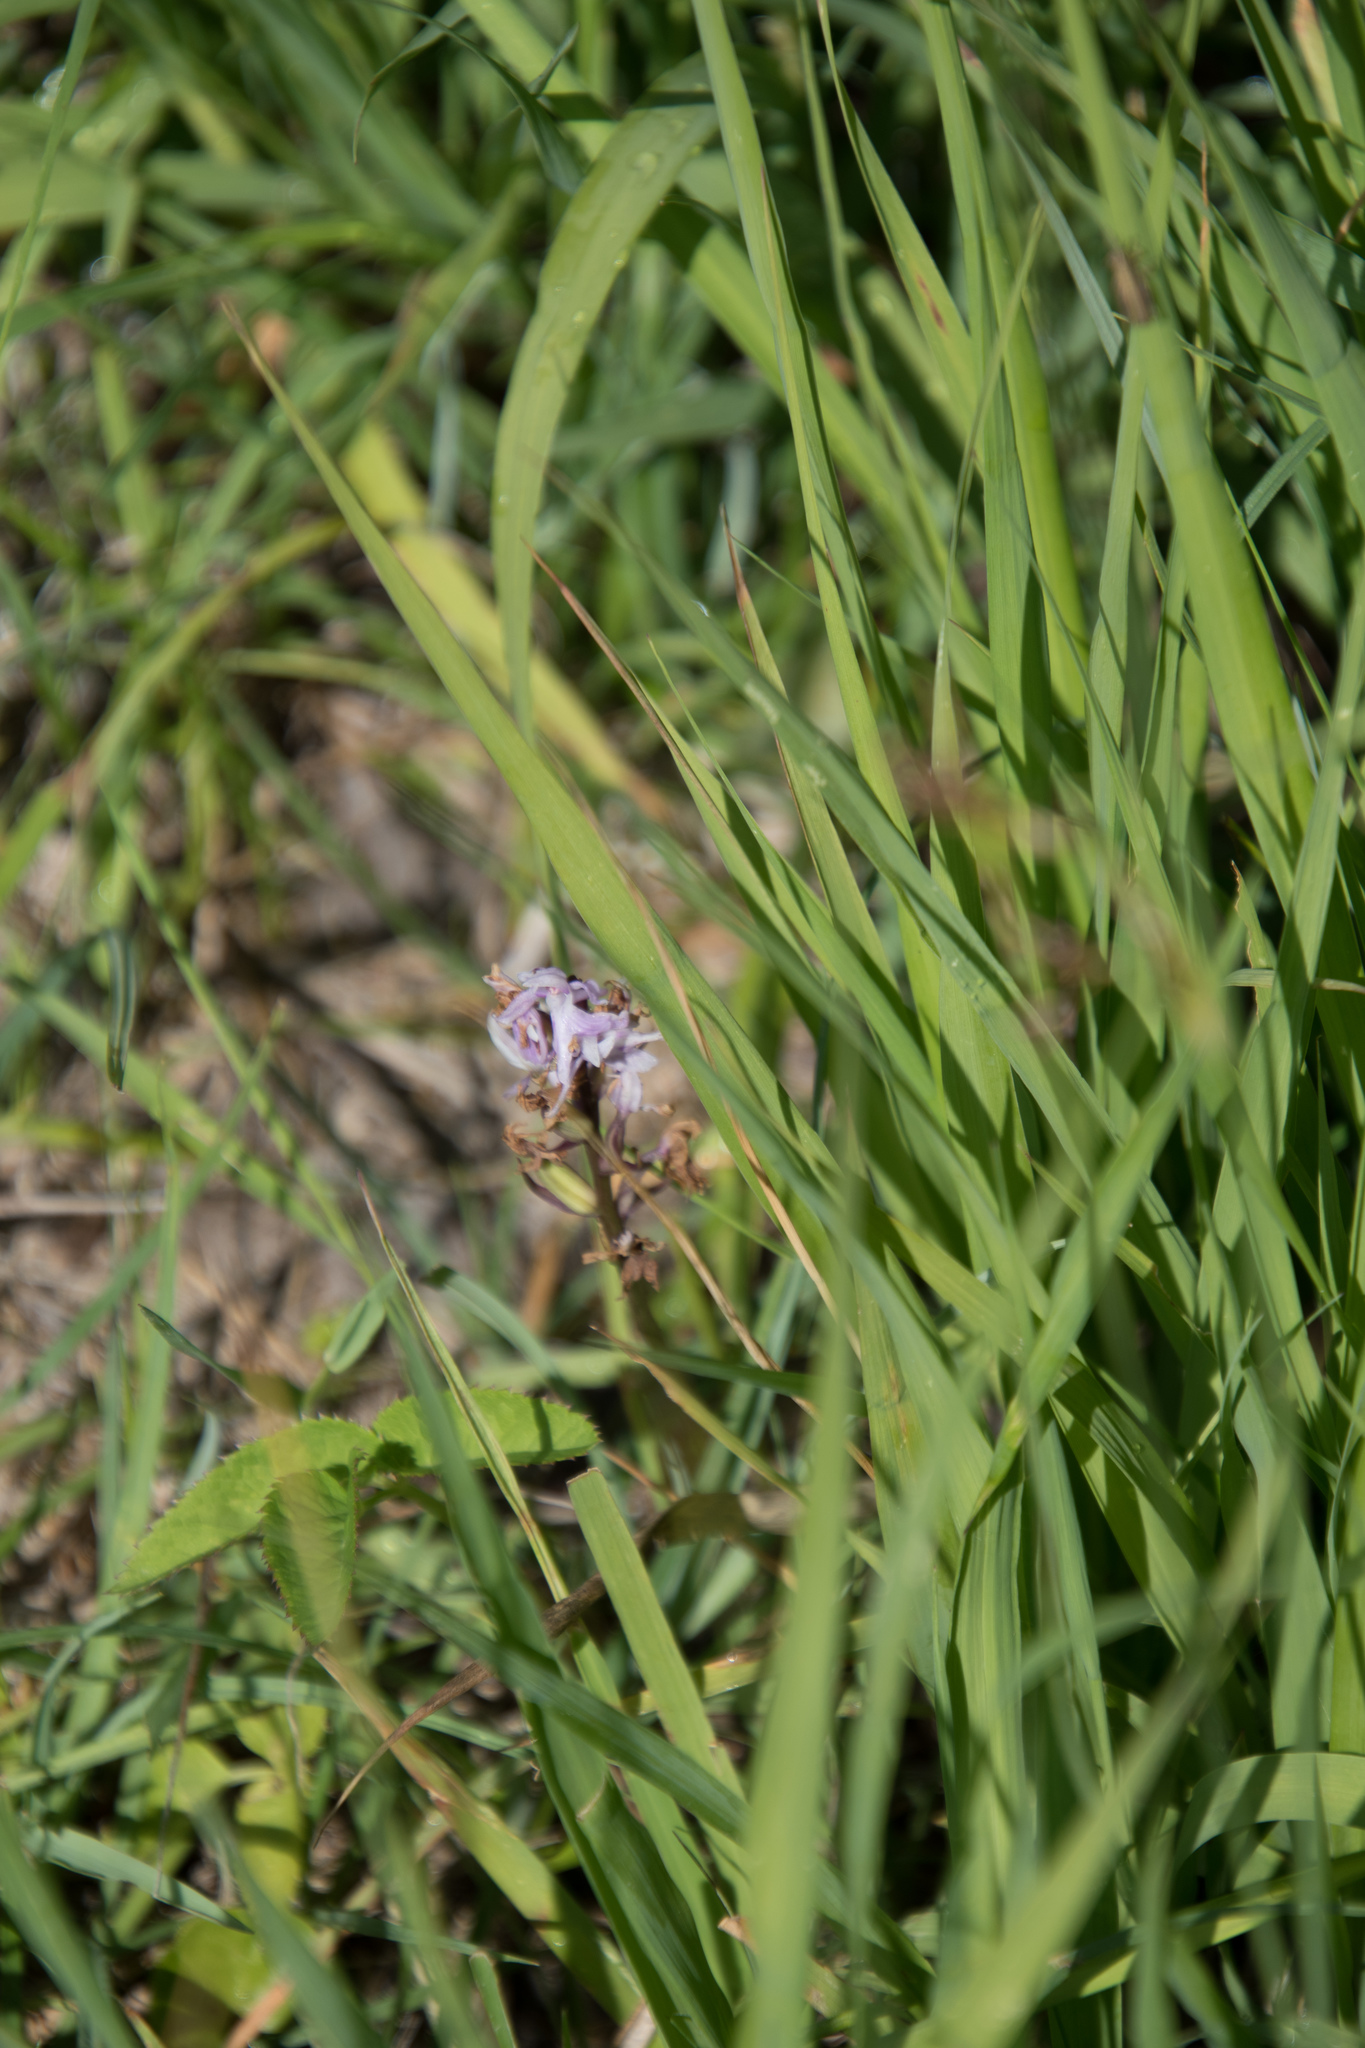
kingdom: Plantae
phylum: Tracheophyta
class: Liliopsida
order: Asparagales
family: Orchidaceae
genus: Dactylorhiza
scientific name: Dactylorhiza maculata
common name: Heath spotted-orchid
